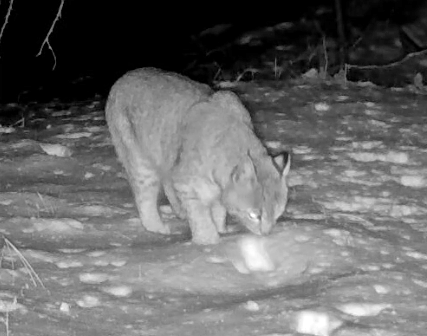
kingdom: Animalia
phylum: Chordata
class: Mammalia
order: Carnivora
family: Felidae
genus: Lynx
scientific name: Lynx rufus
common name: Bobcat
